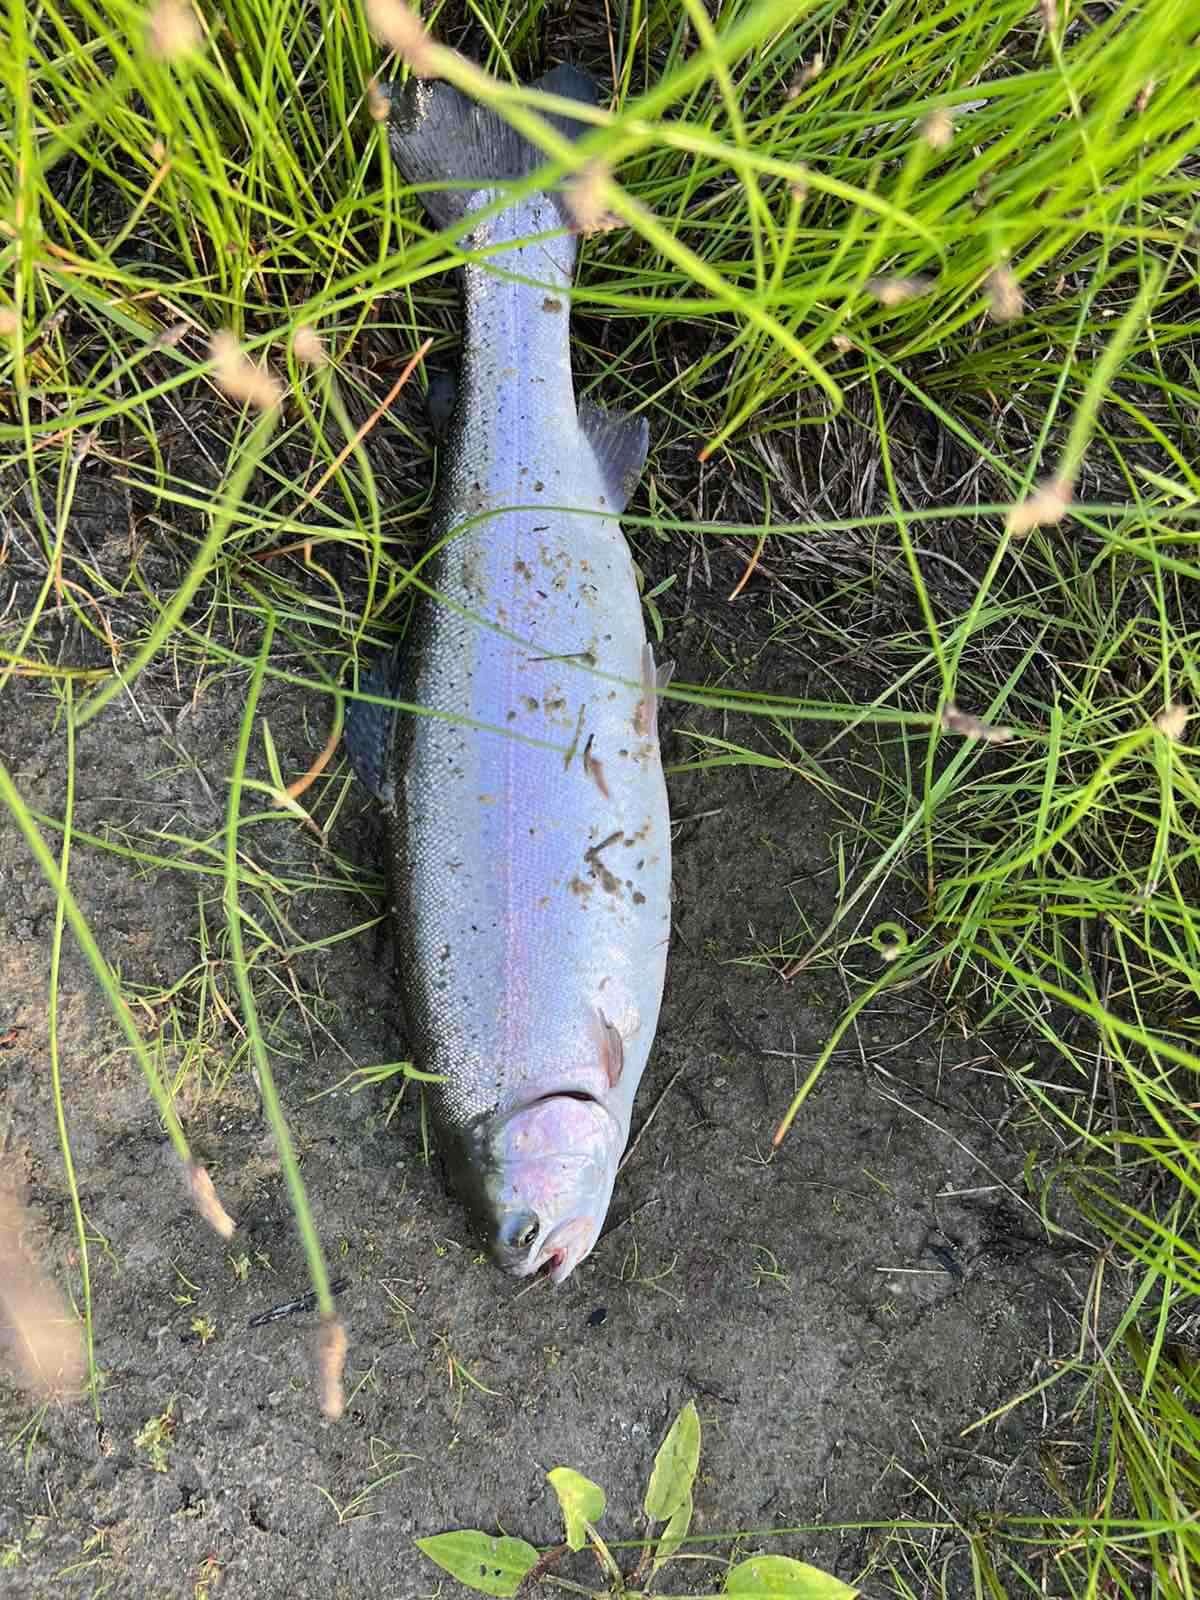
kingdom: Animalia
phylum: Chordata
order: Salmoniformes
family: Salmonidae
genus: Oncorhynchus
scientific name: Oncorhynchus mykiss
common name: Rainbow trout
